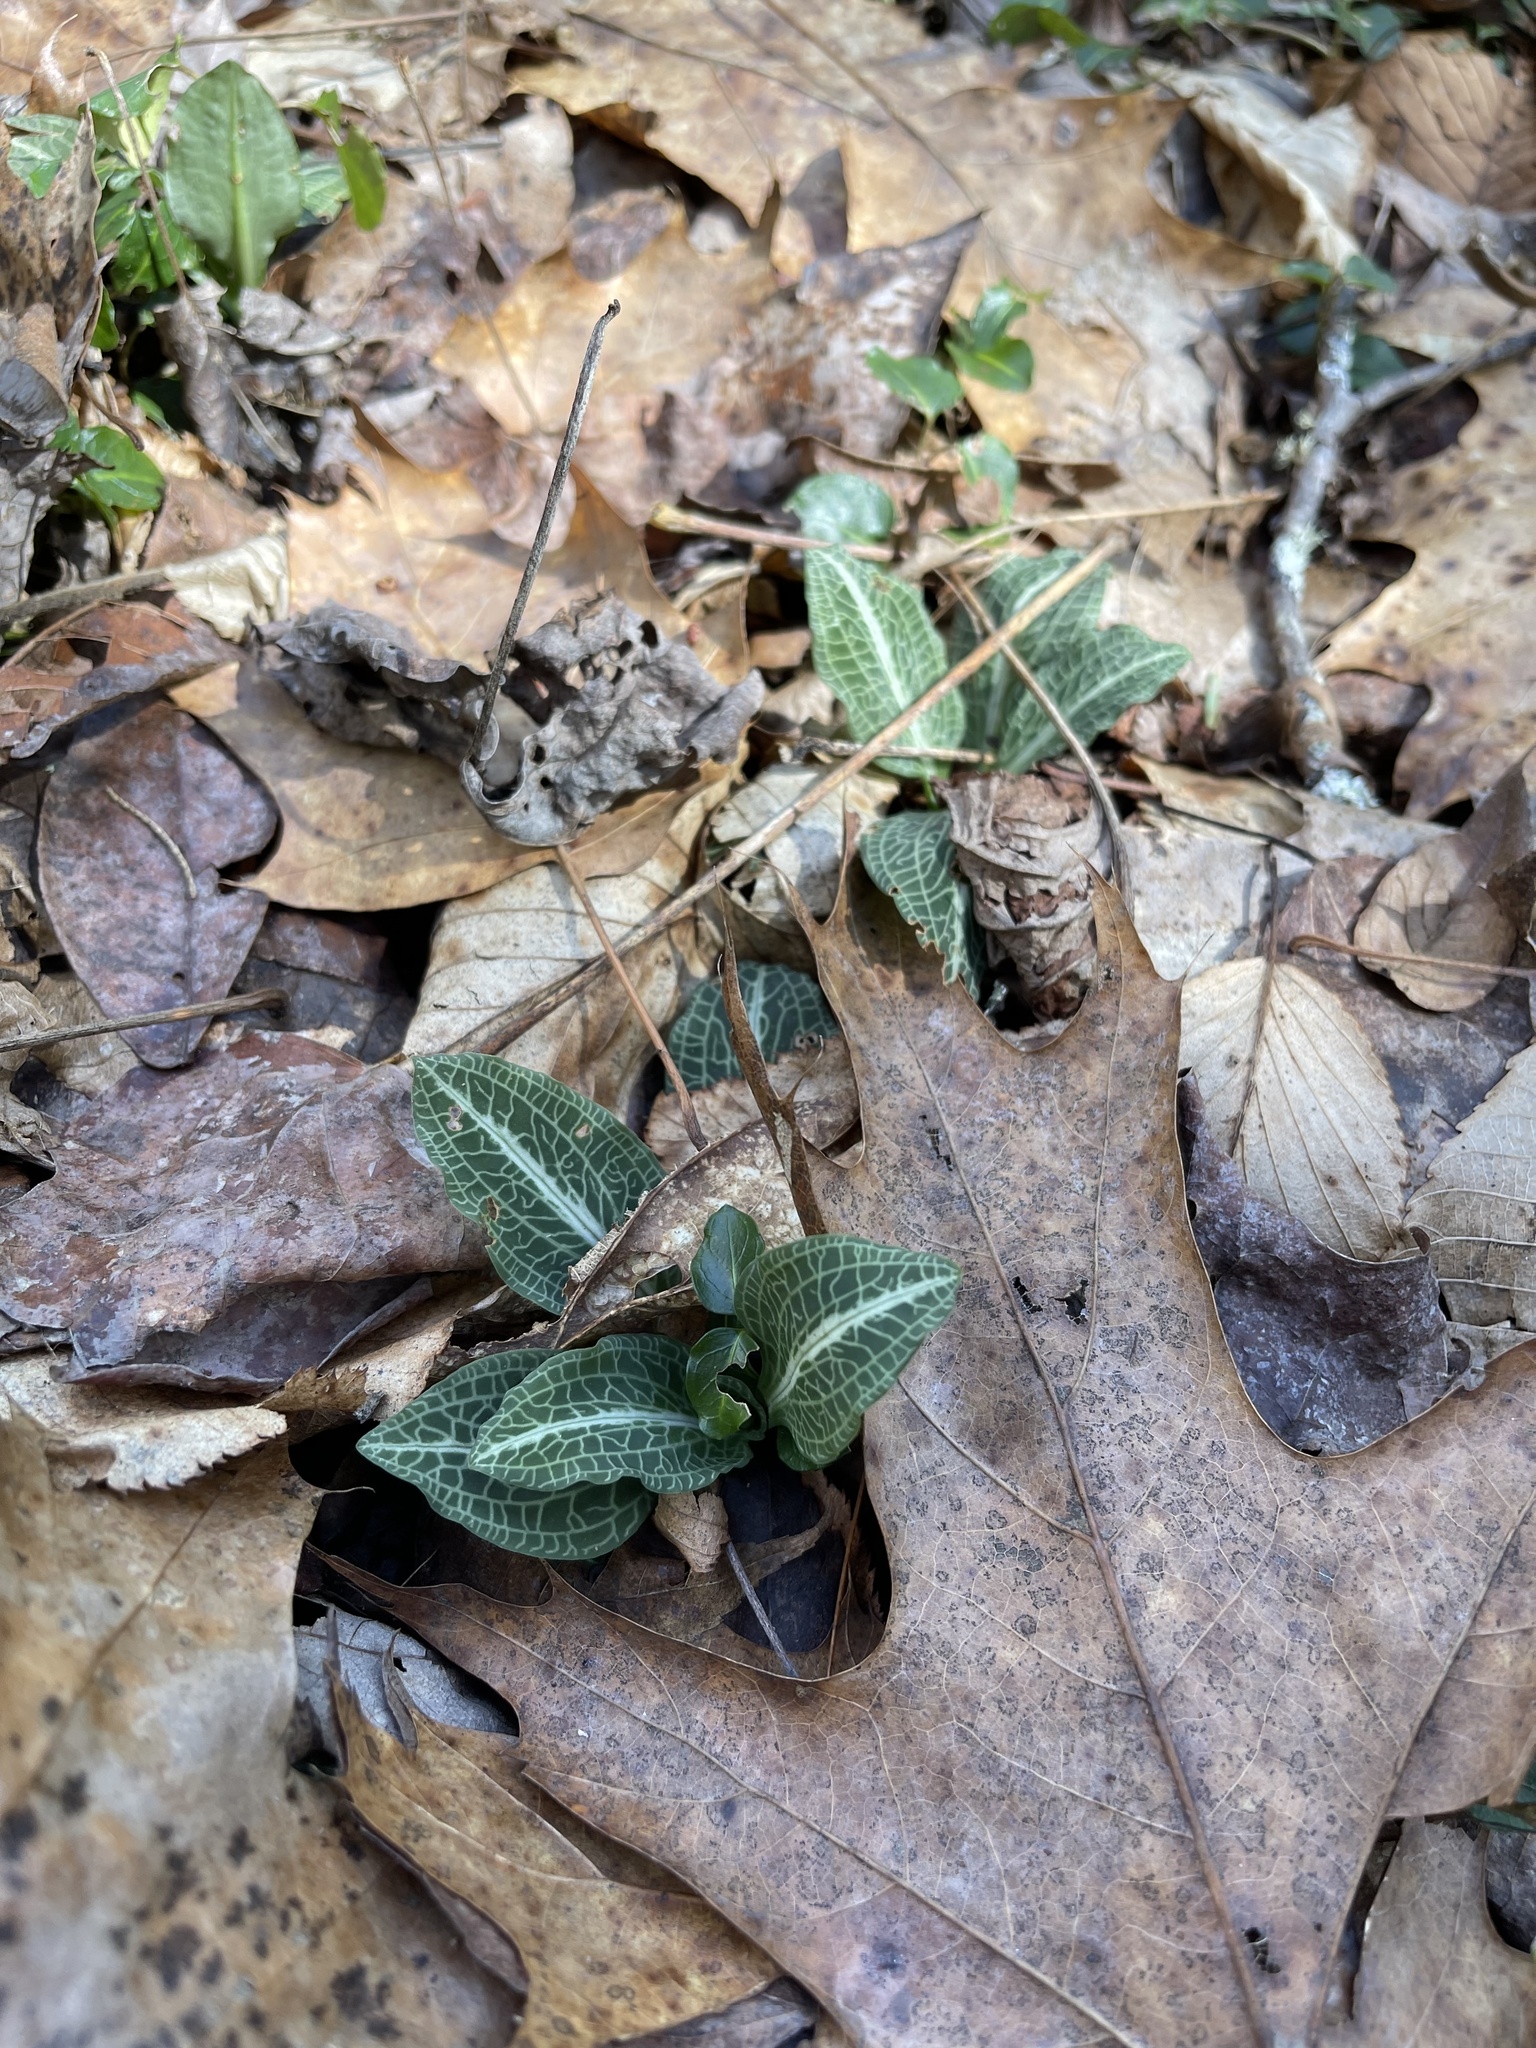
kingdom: Plantae
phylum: Tracheophyta
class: Liliopsida
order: Asparagales
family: Orchidaceae
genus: Goodyera
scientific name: Goodyera pubescens
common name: Downy rattlesnake-plantain
